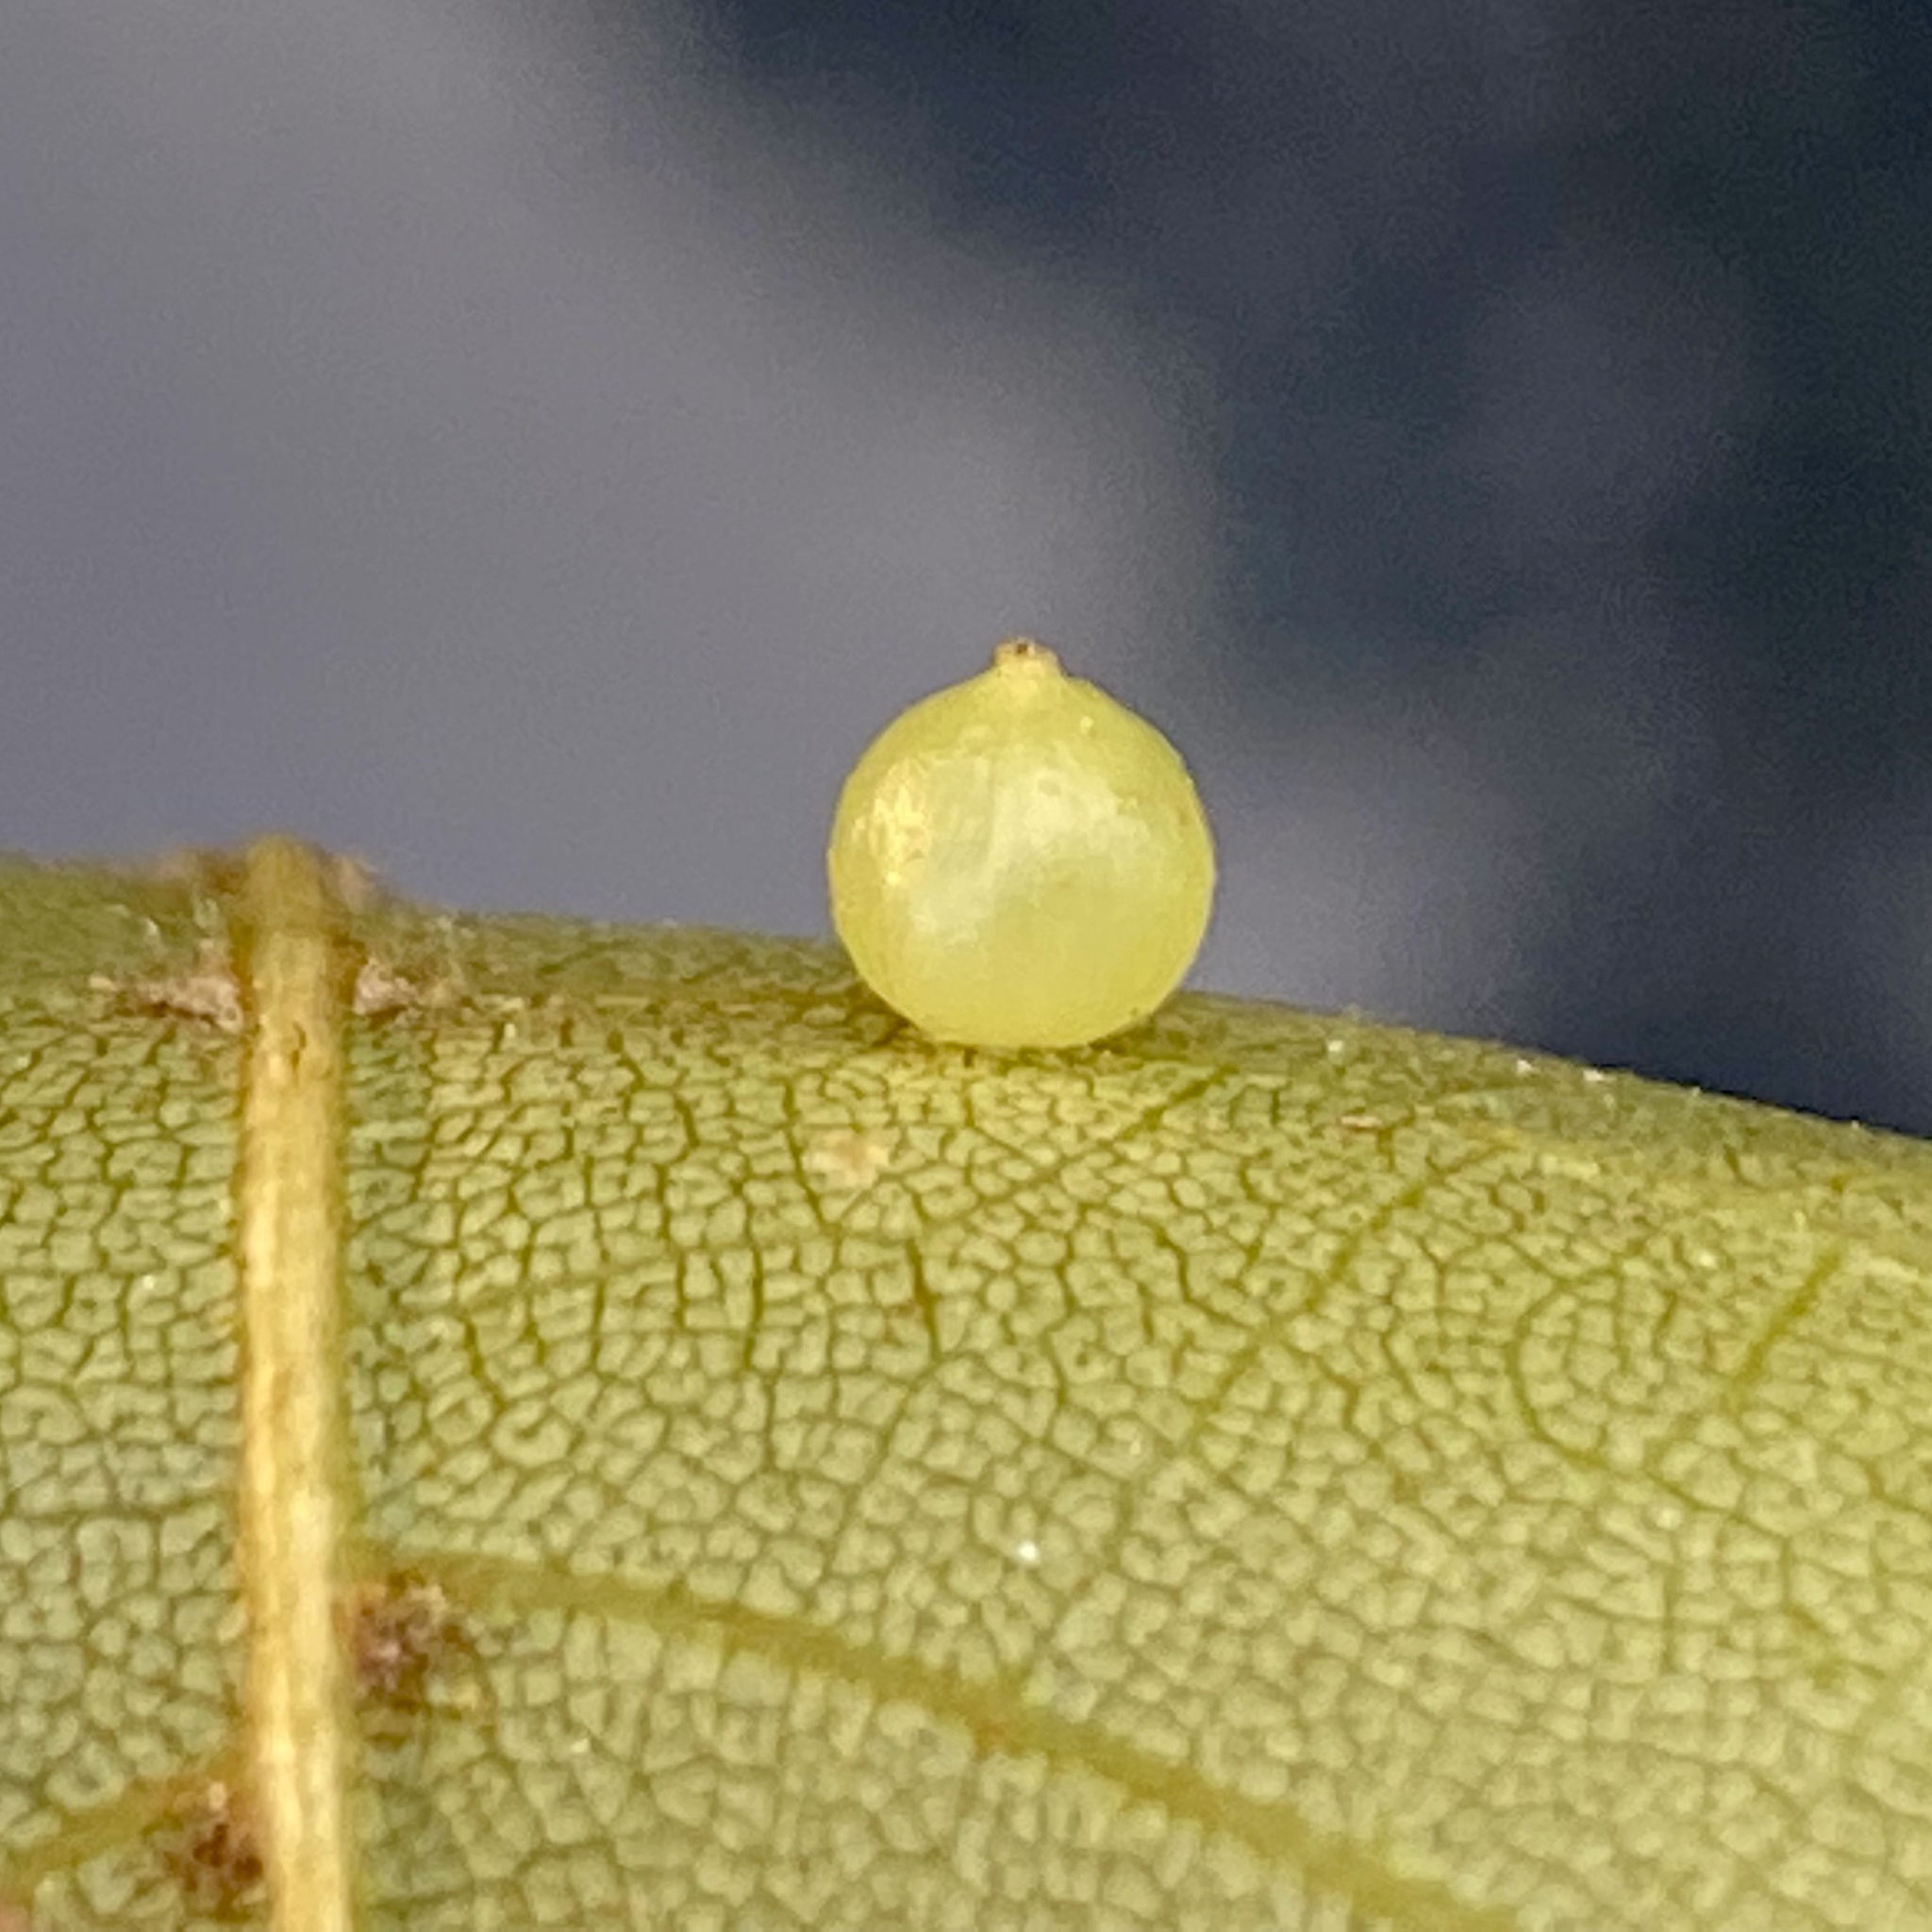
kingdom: Animalia
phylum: Arthropoda
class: Insecta
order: Diptera
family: Cecidomyiidae
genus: Caryomyia
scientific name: Caryomyia leviglobus
